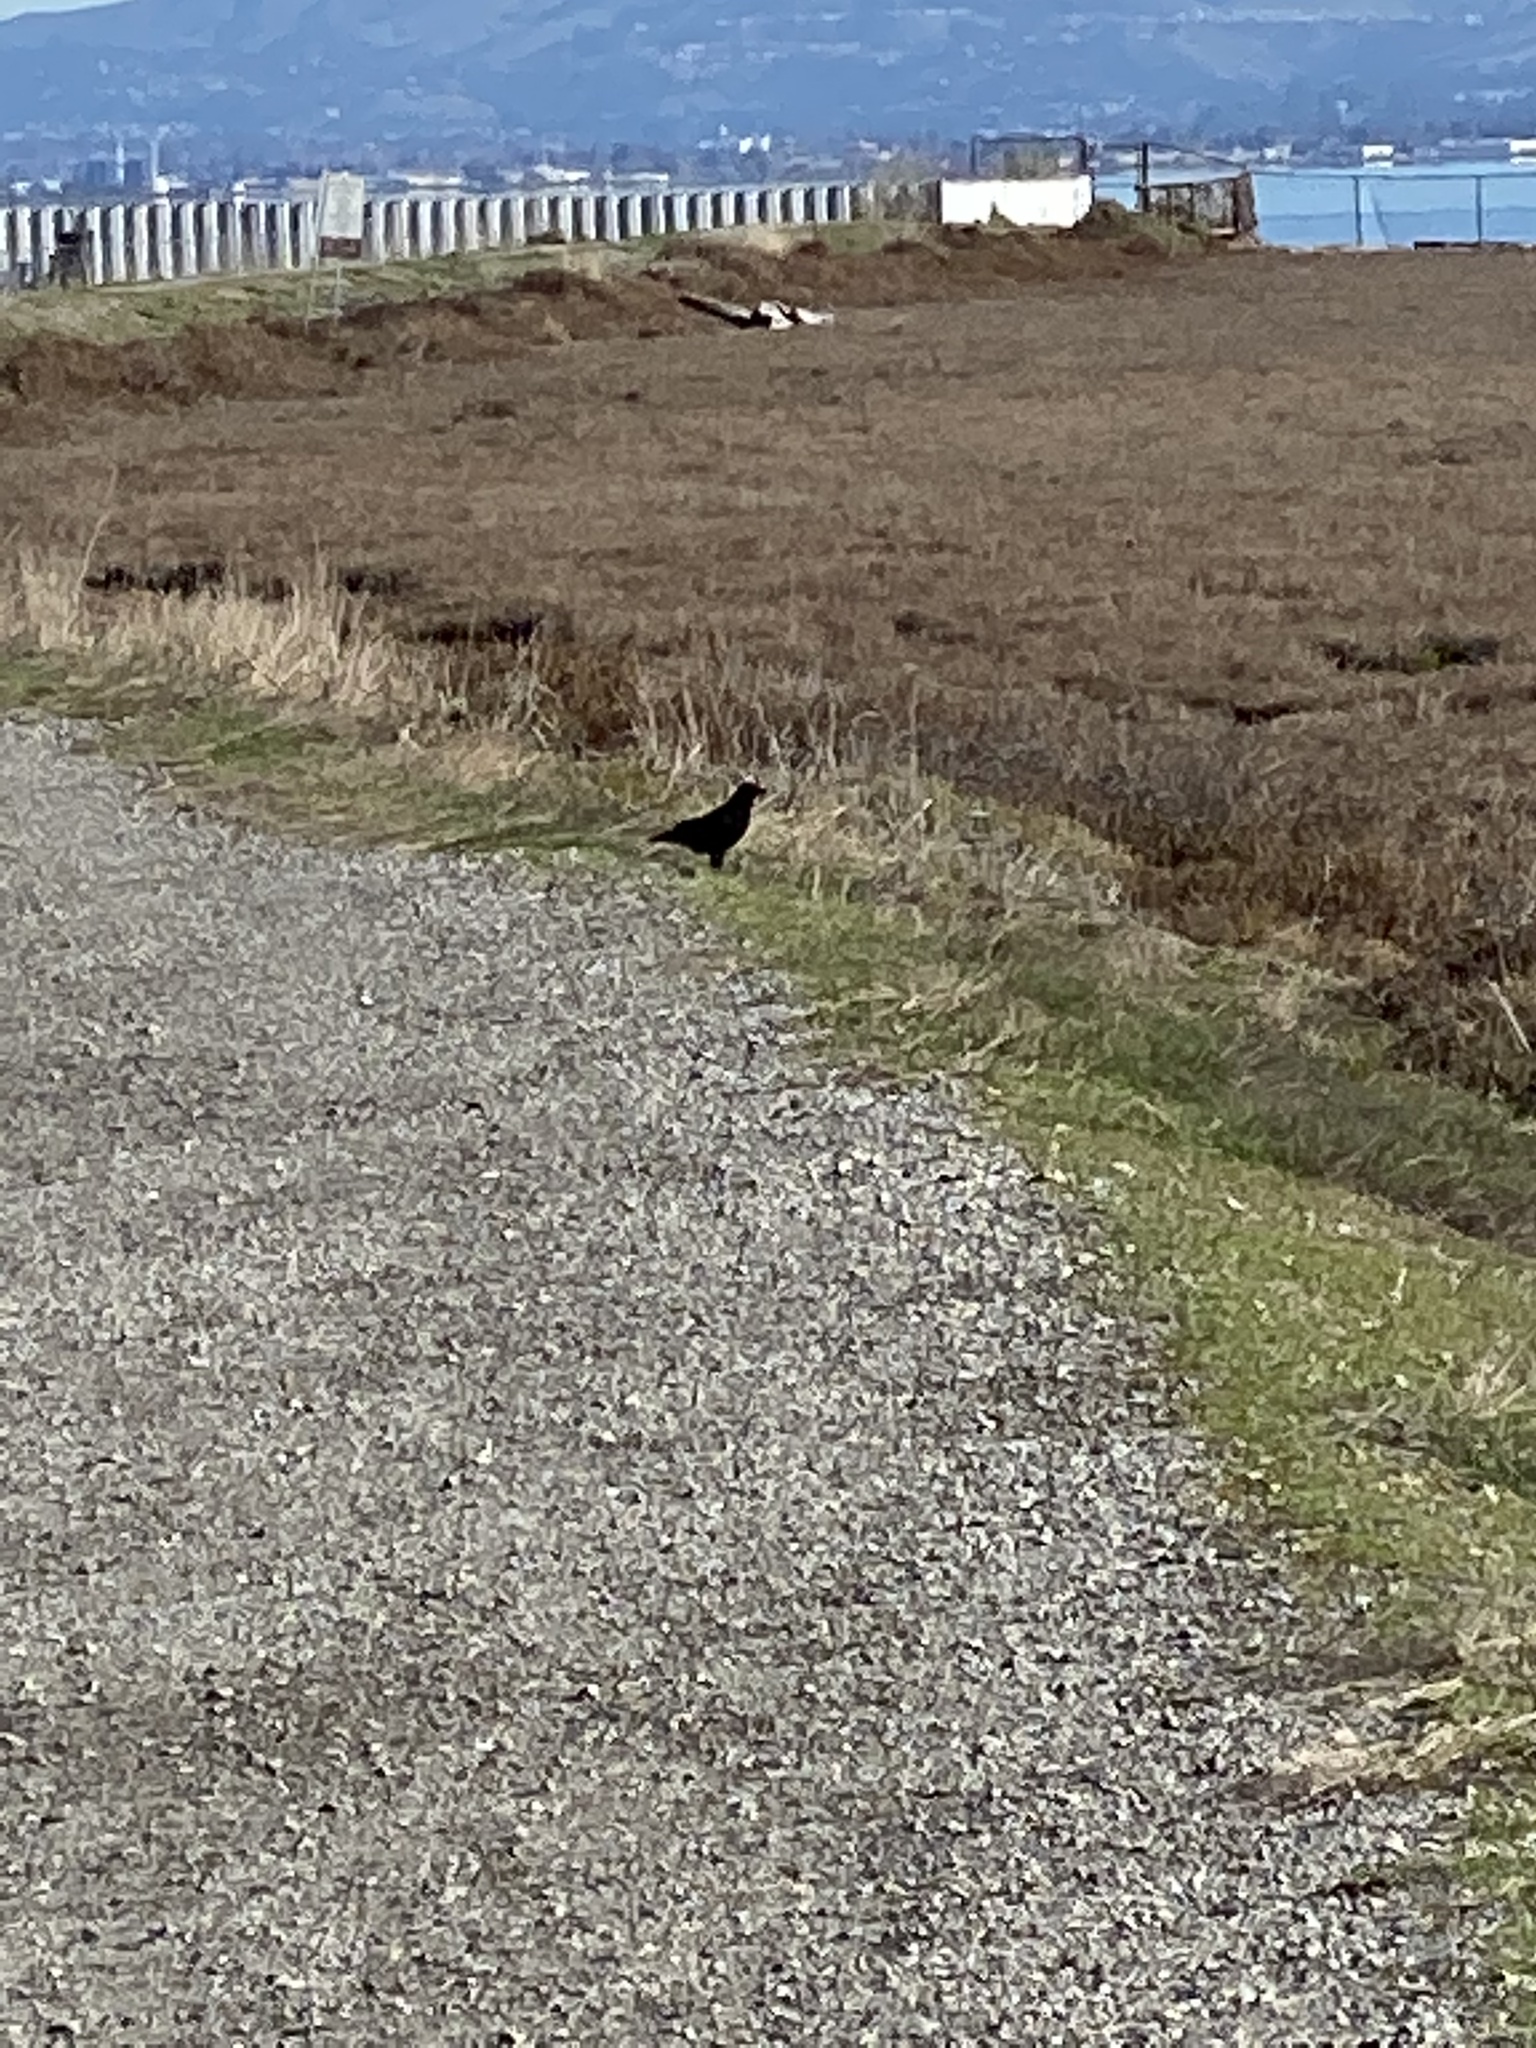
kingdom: Animalia
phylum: Chordata
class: Aves
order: Passeriformes
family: Corvidae
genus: Corvus
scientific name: Corvus brachyrhynchos
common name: American crow
